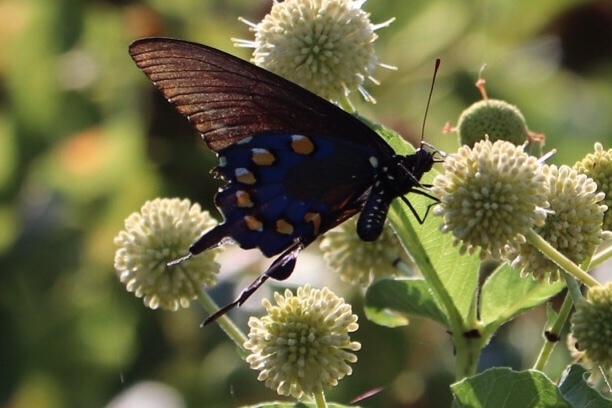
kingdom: Animalia
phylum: Arthropoda
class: Insecta
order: Lepidoptera
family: Papilionidae
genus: Battus
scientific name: Battus philenor
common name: Pipevine swallowtail
